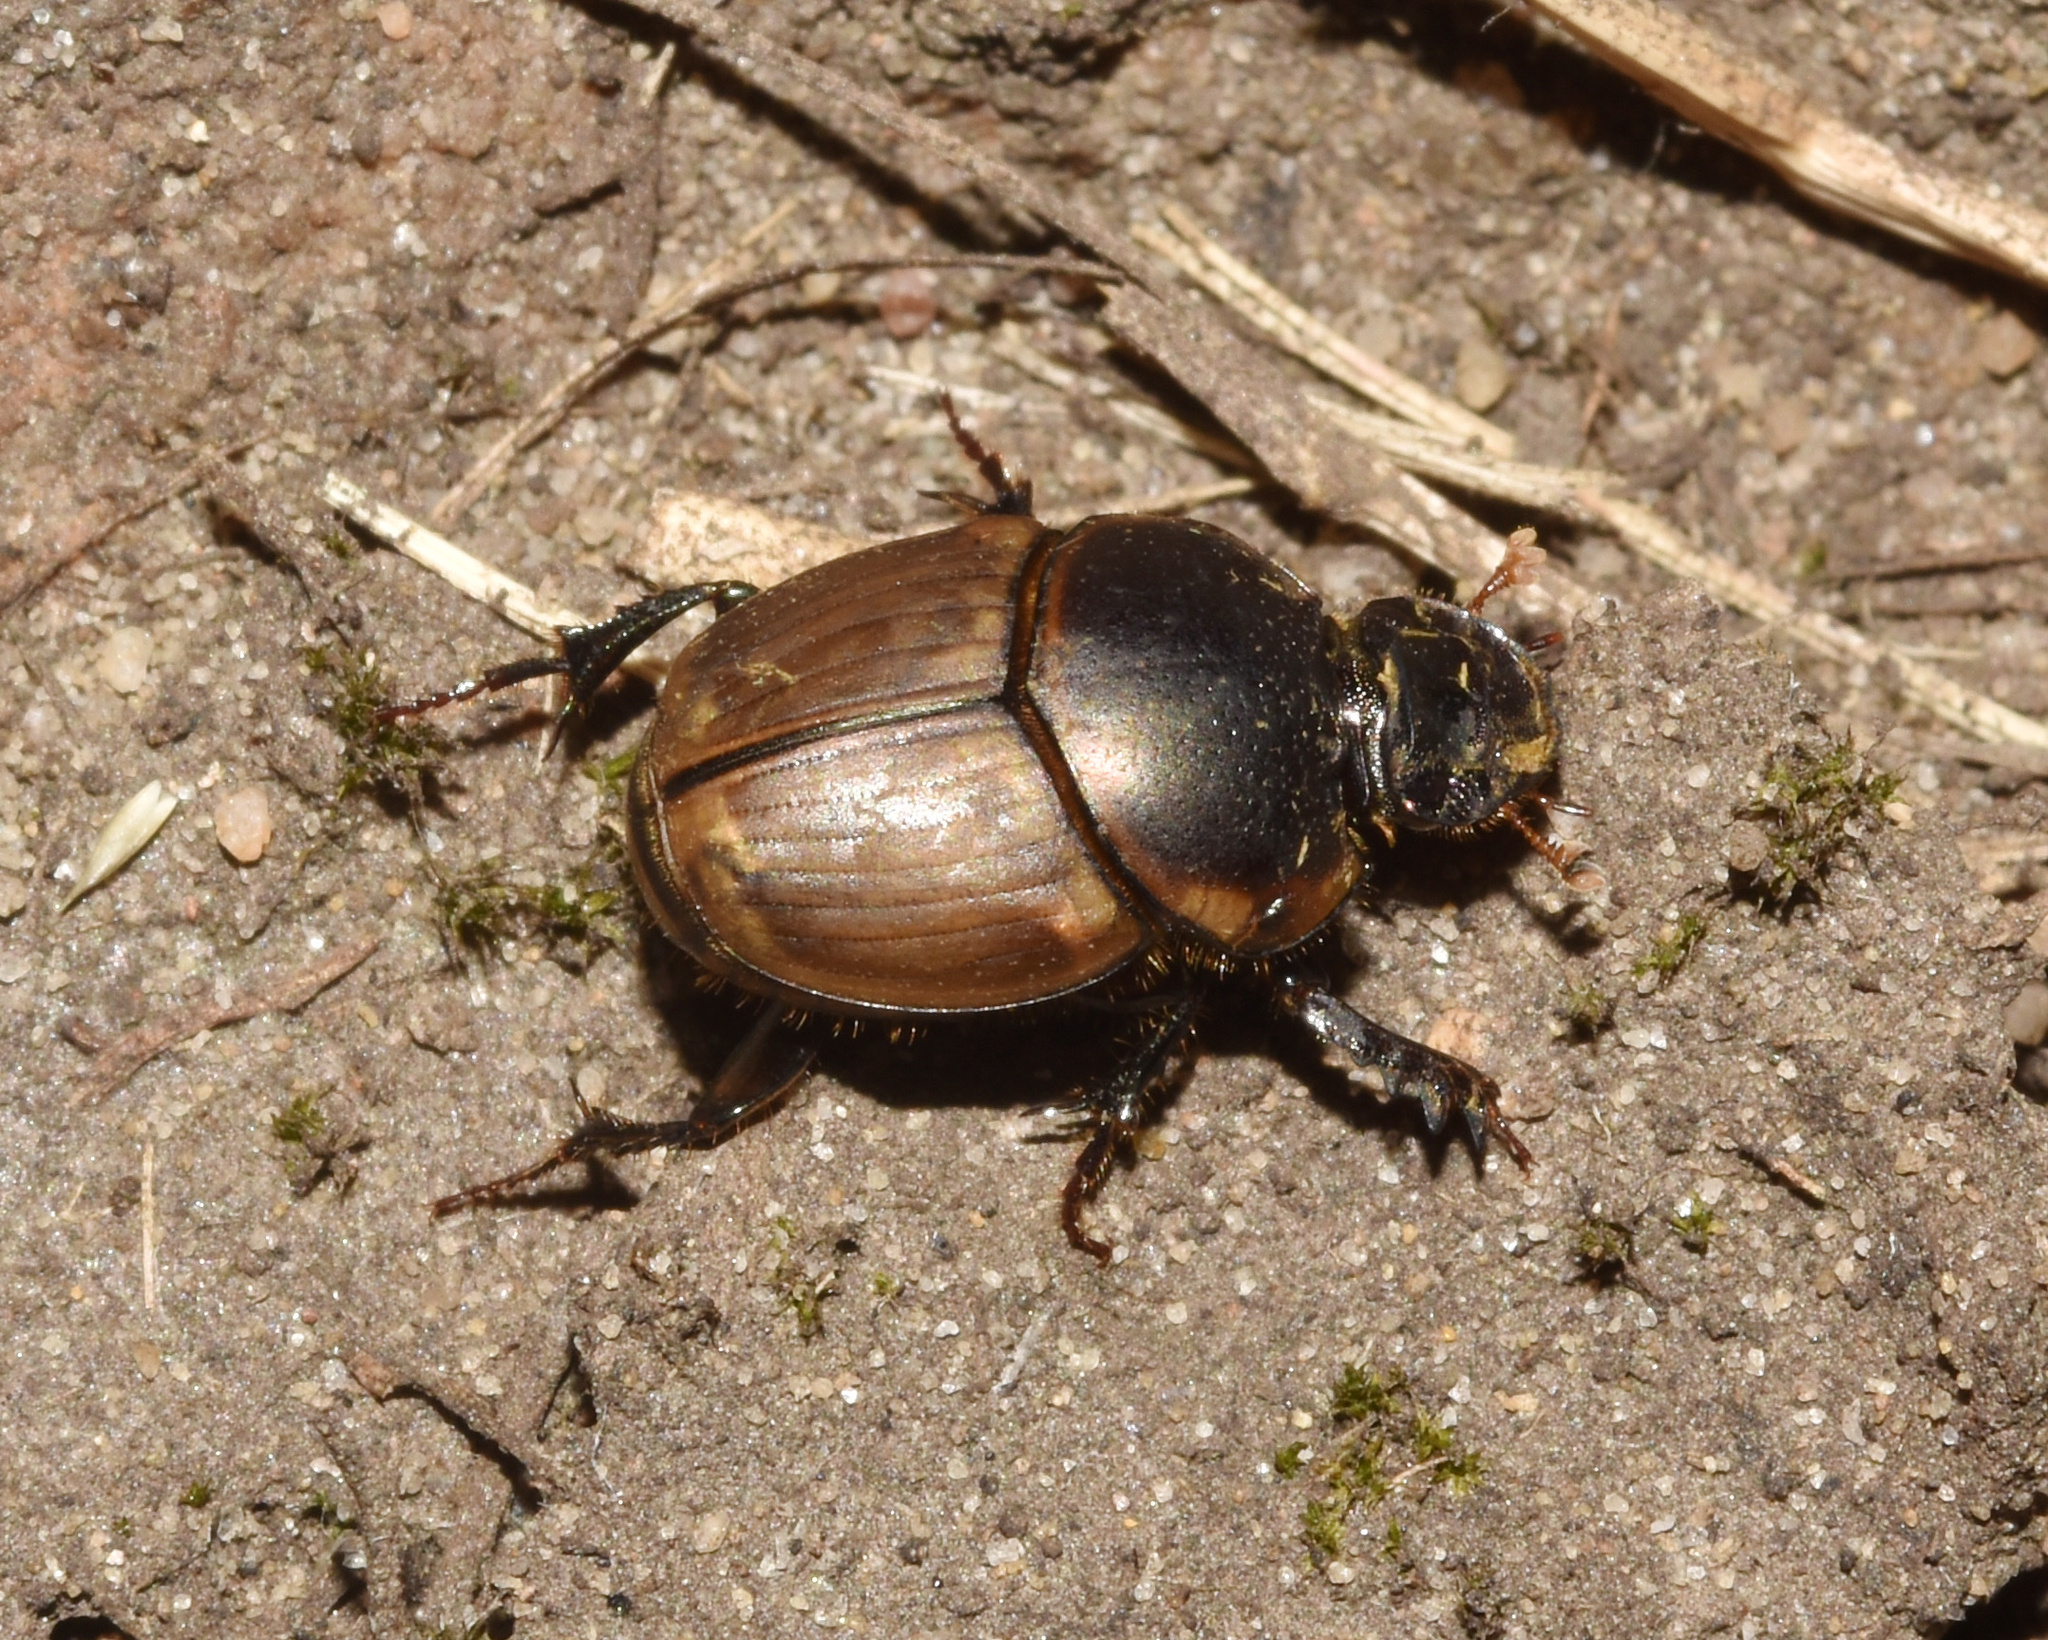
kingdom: Animalia
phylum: Arthropoda
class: Insecta
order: Coleoptera
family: Scarabaeidae
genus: Digitonthophagus
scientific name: Digitonthophagus gazella
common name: Brown dung beetle
